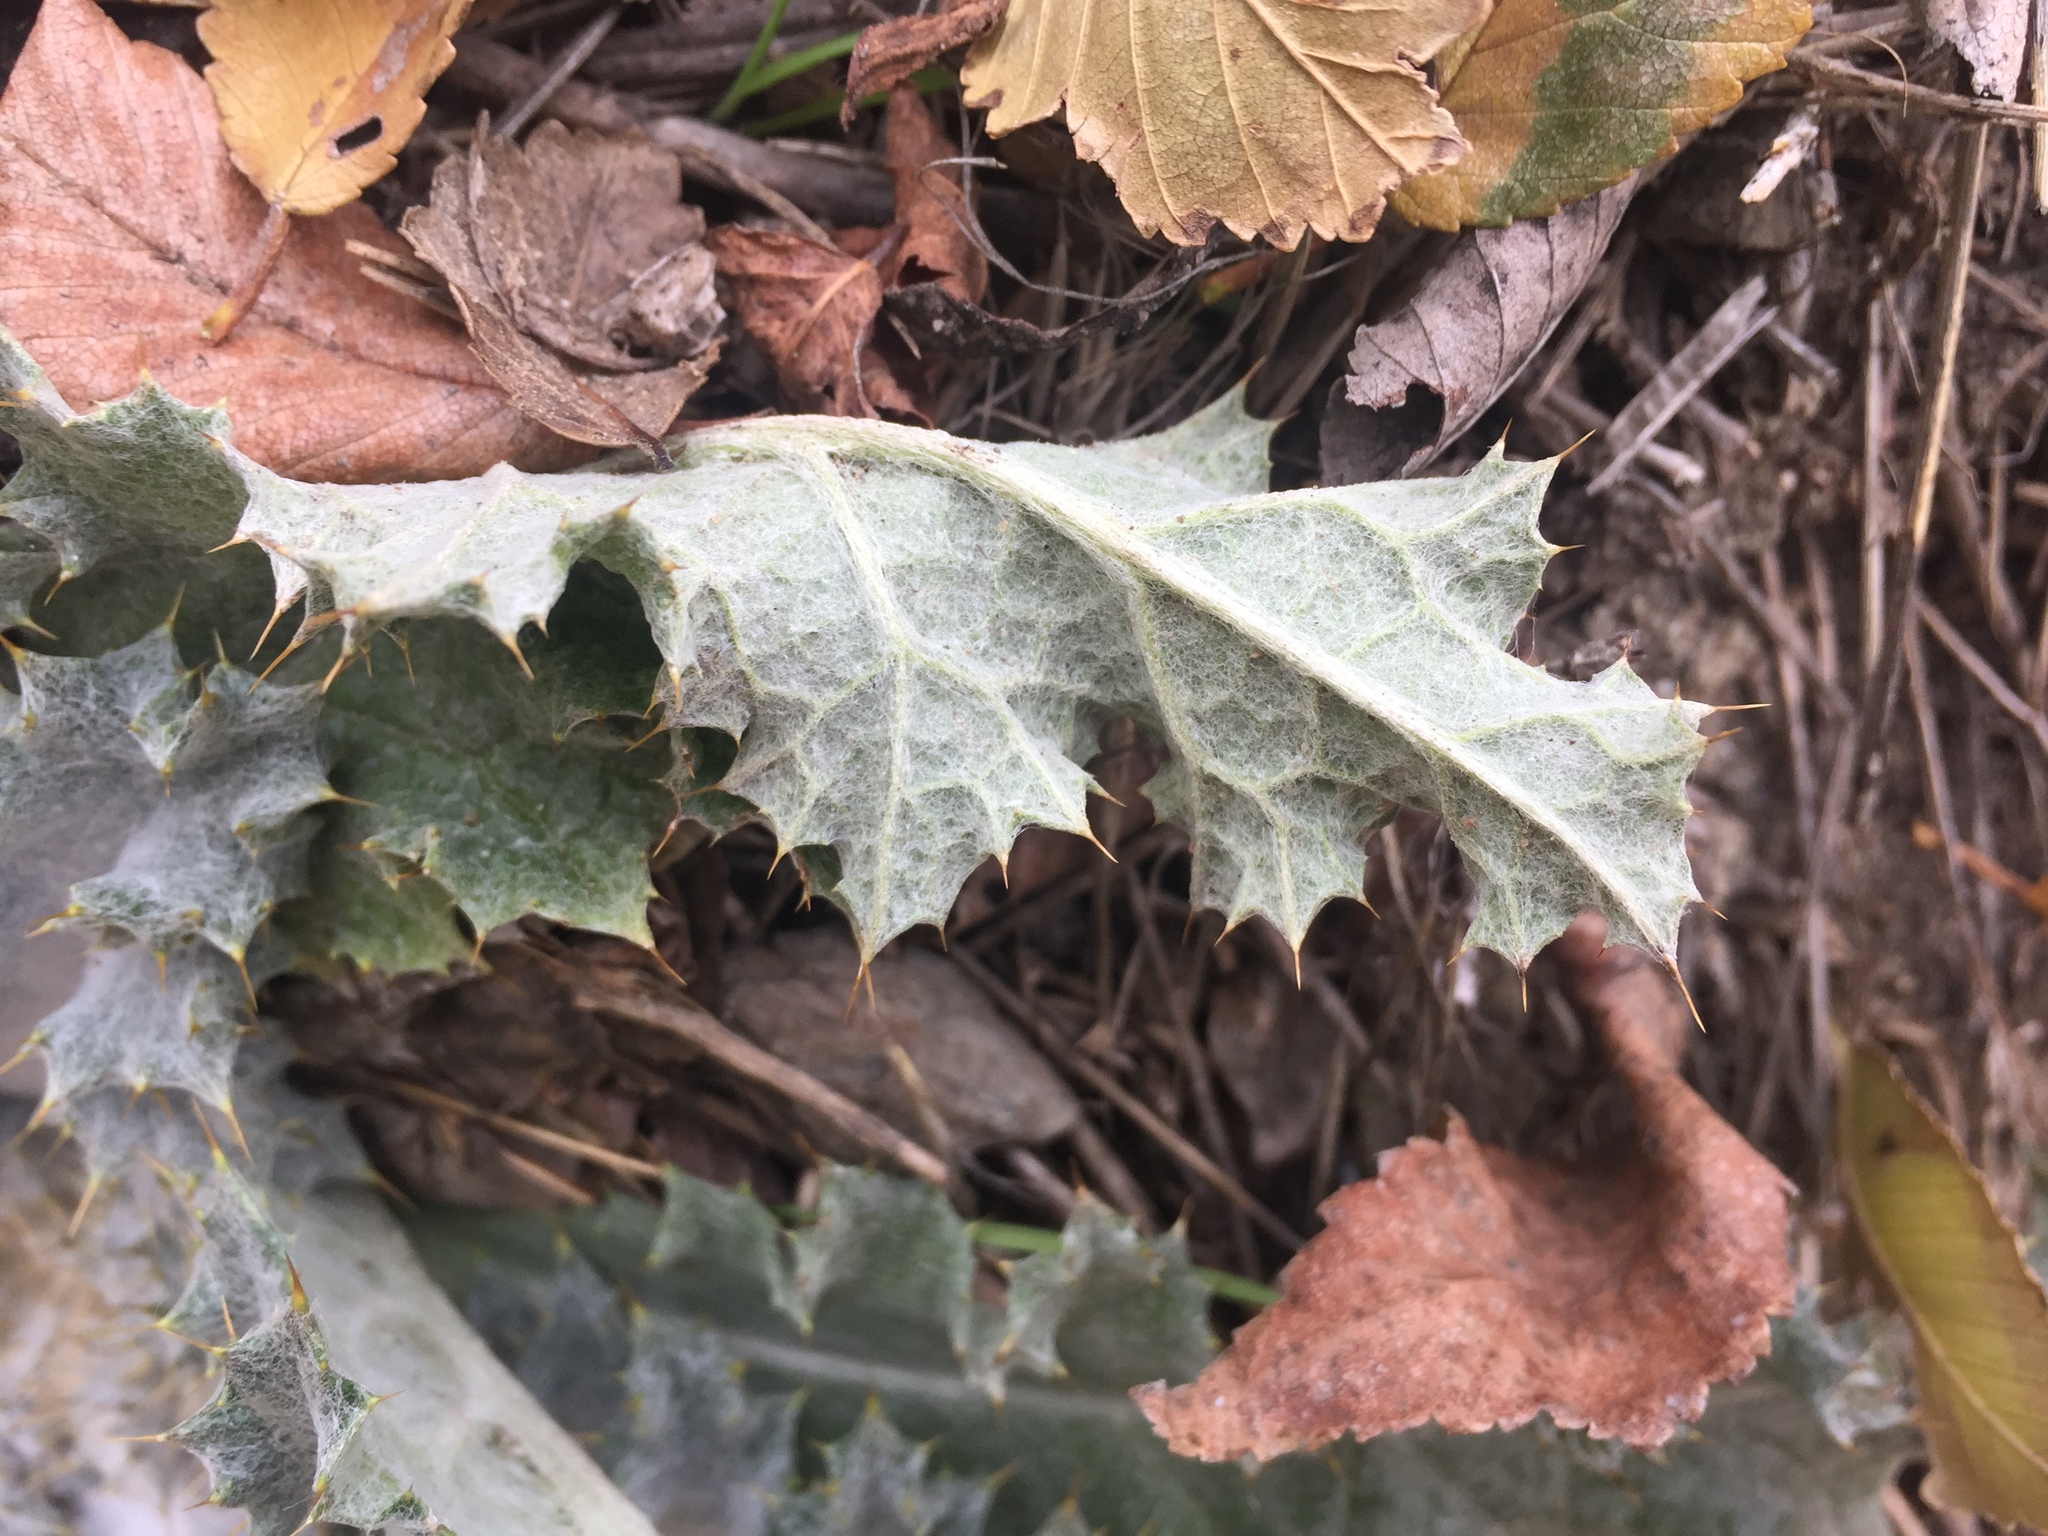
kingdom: Plantae
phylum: Tracheophyta
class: Magnoliopsida
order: Asterales
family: Asteraceae
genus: Onopordum
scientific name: Onopordum acanthium
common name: Scotch thistle
